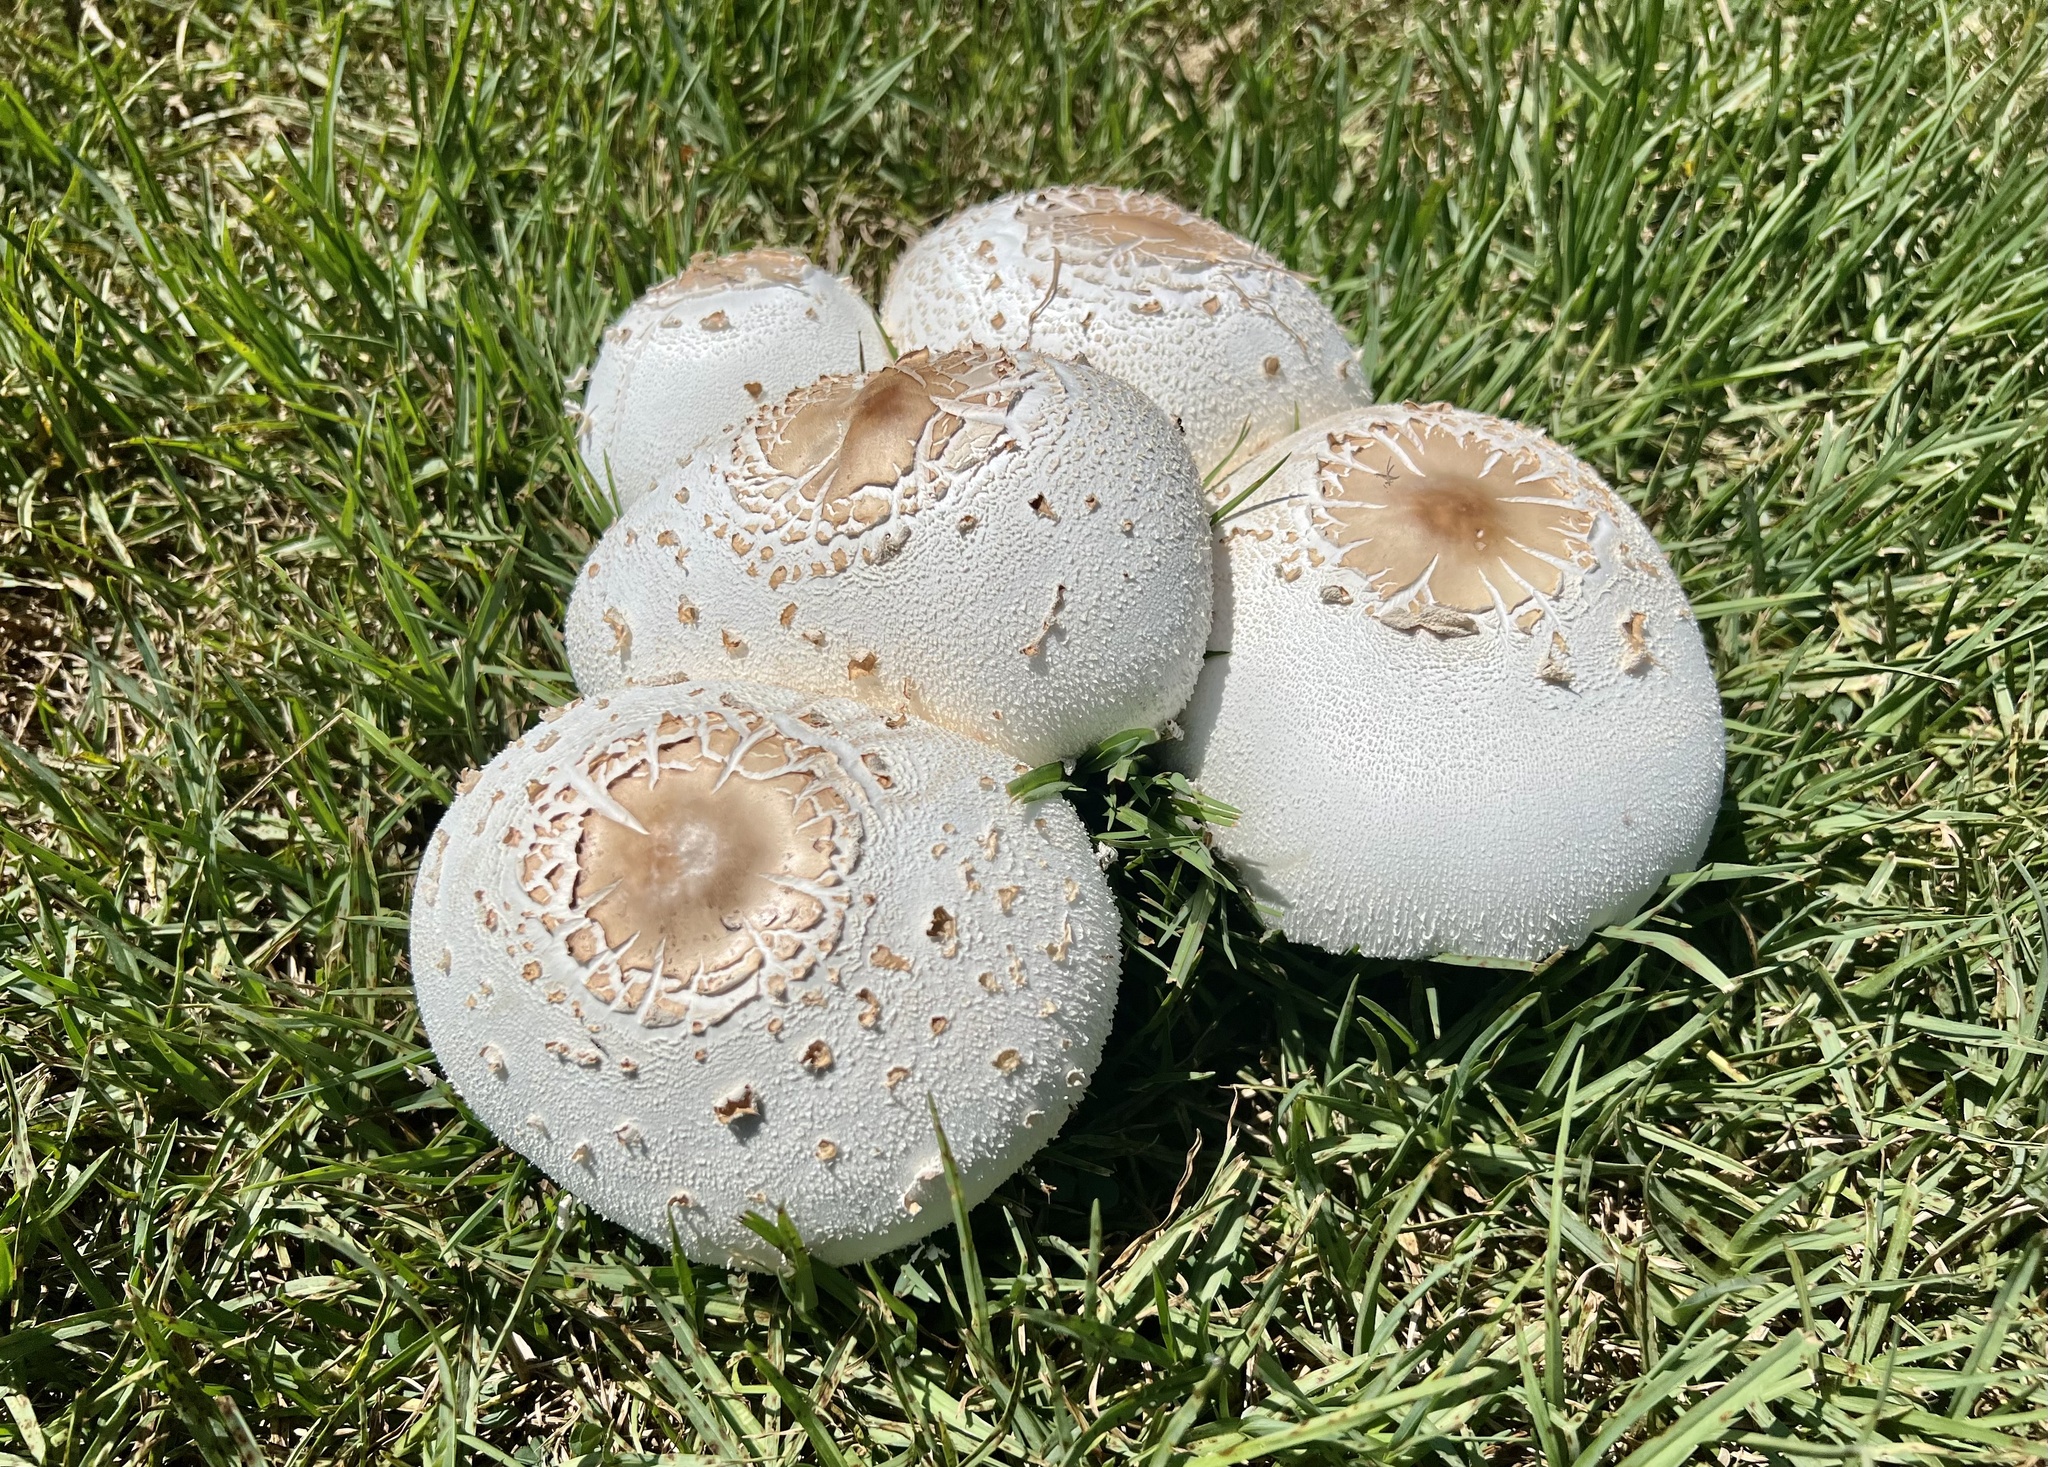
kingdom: Fungi
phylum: Basidiomycota
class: Agaricomycetes
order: Agaricales
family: Agaricaceae
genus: Chlorophyllum
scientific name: Chlorophyllum molybdites
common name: False parasol
